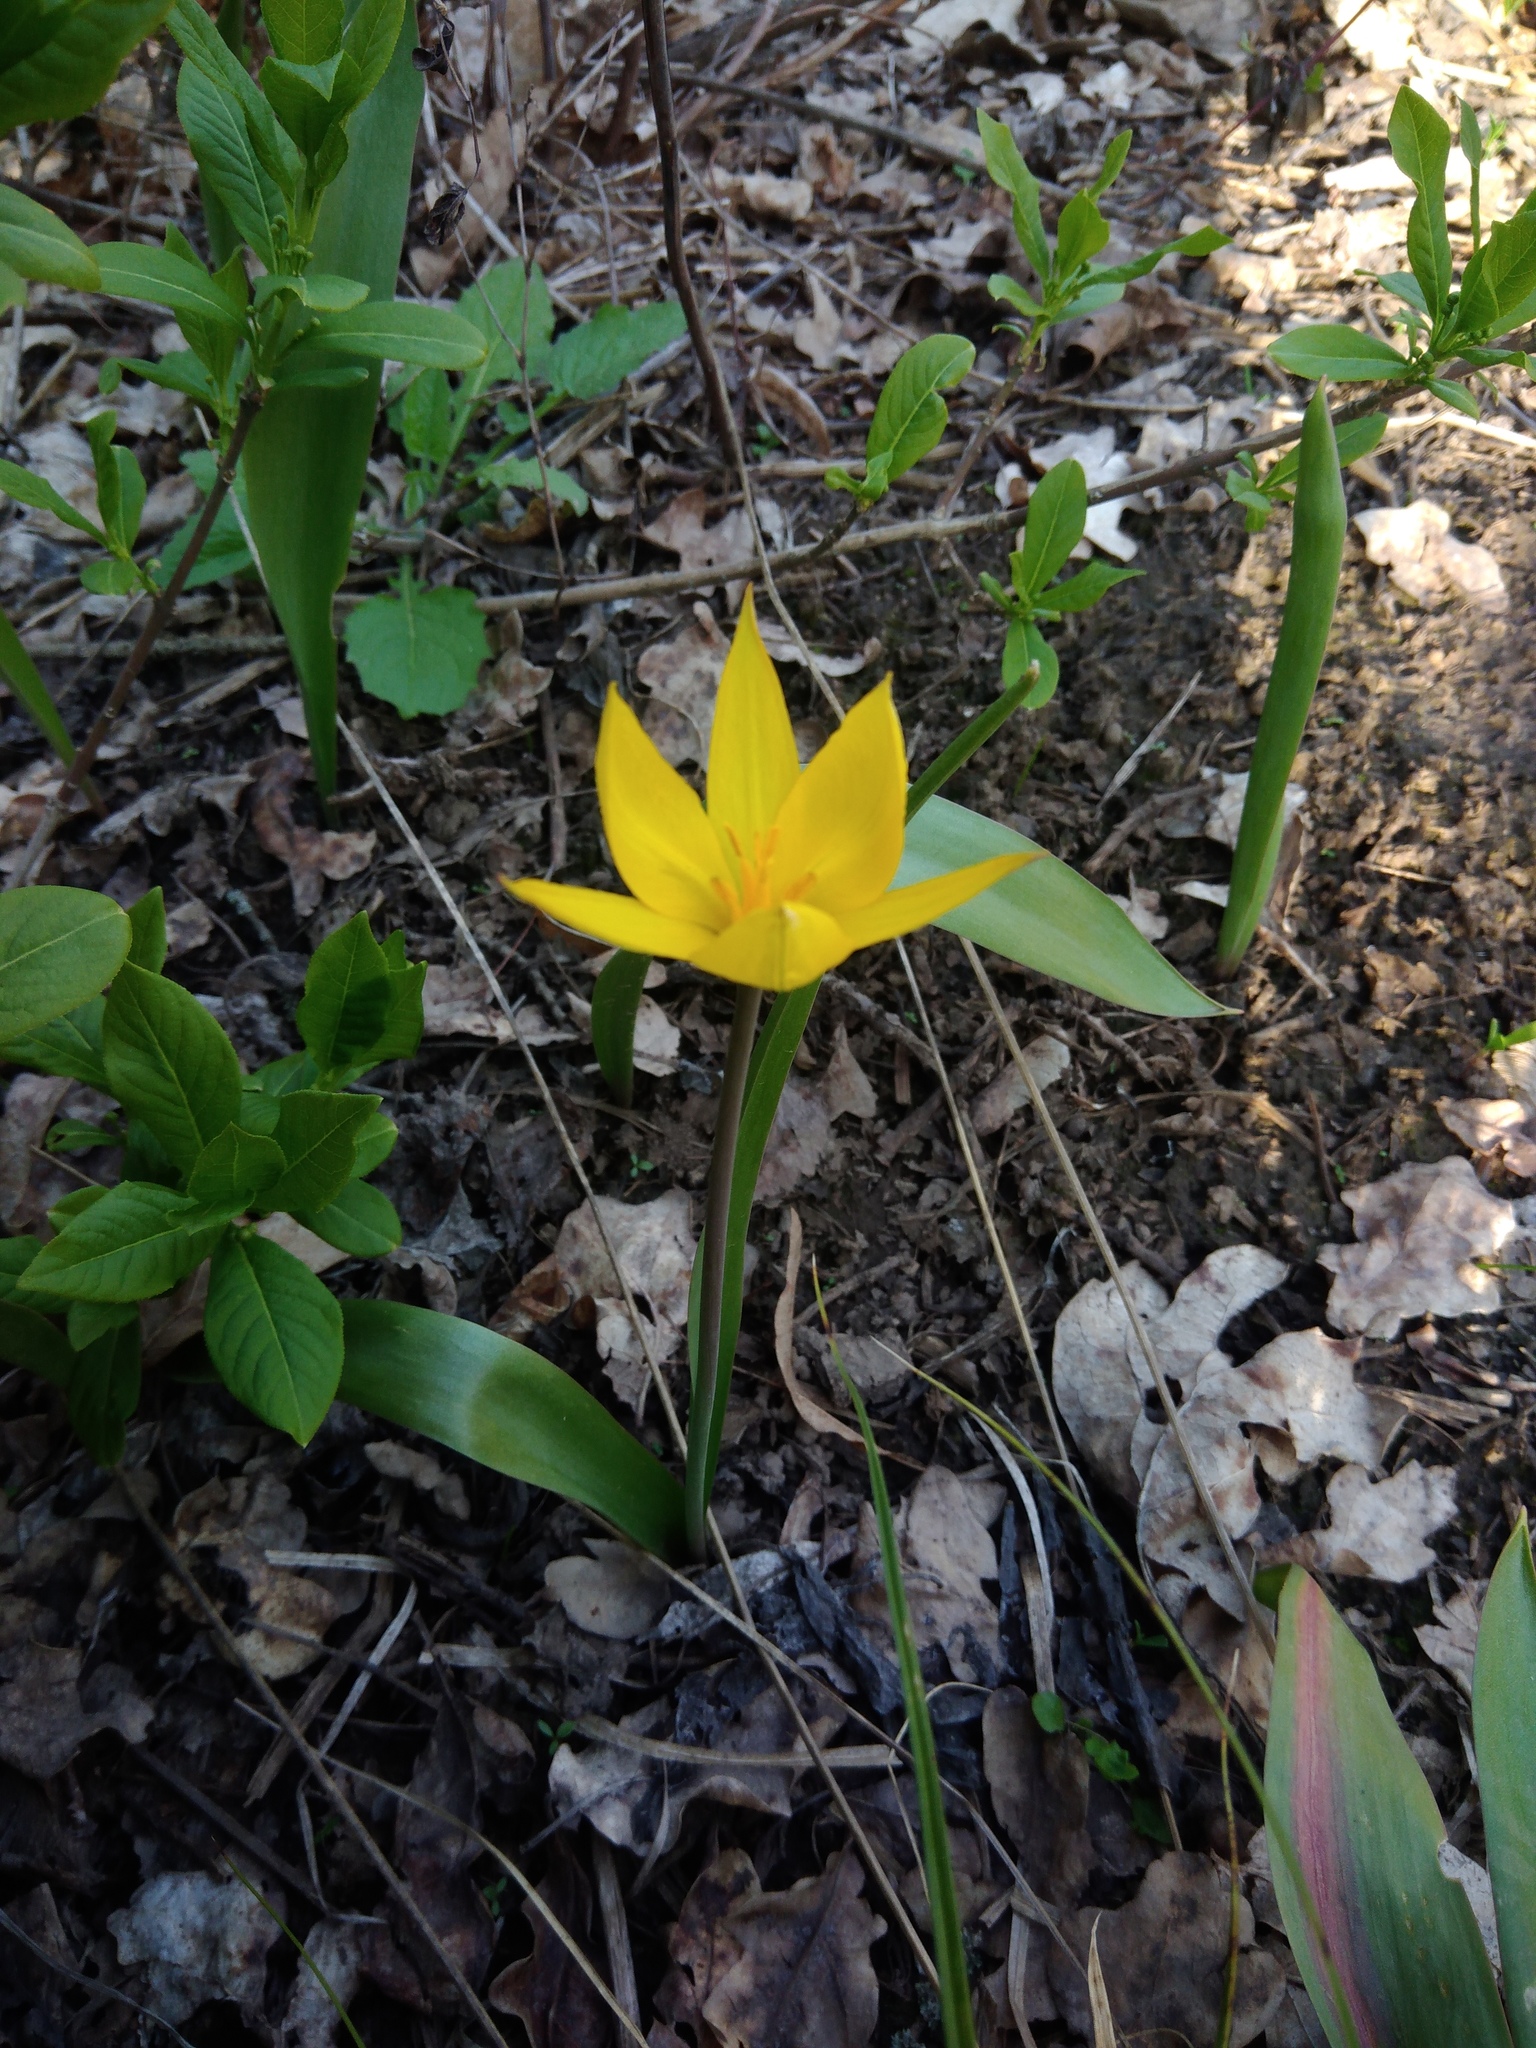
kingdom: Plantae
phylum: Tracheophyta
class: Liliopsida
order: Liliales
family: Liliaceae
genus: Tulipa
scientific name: Tulipa sylvestris
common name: Wild tulip
